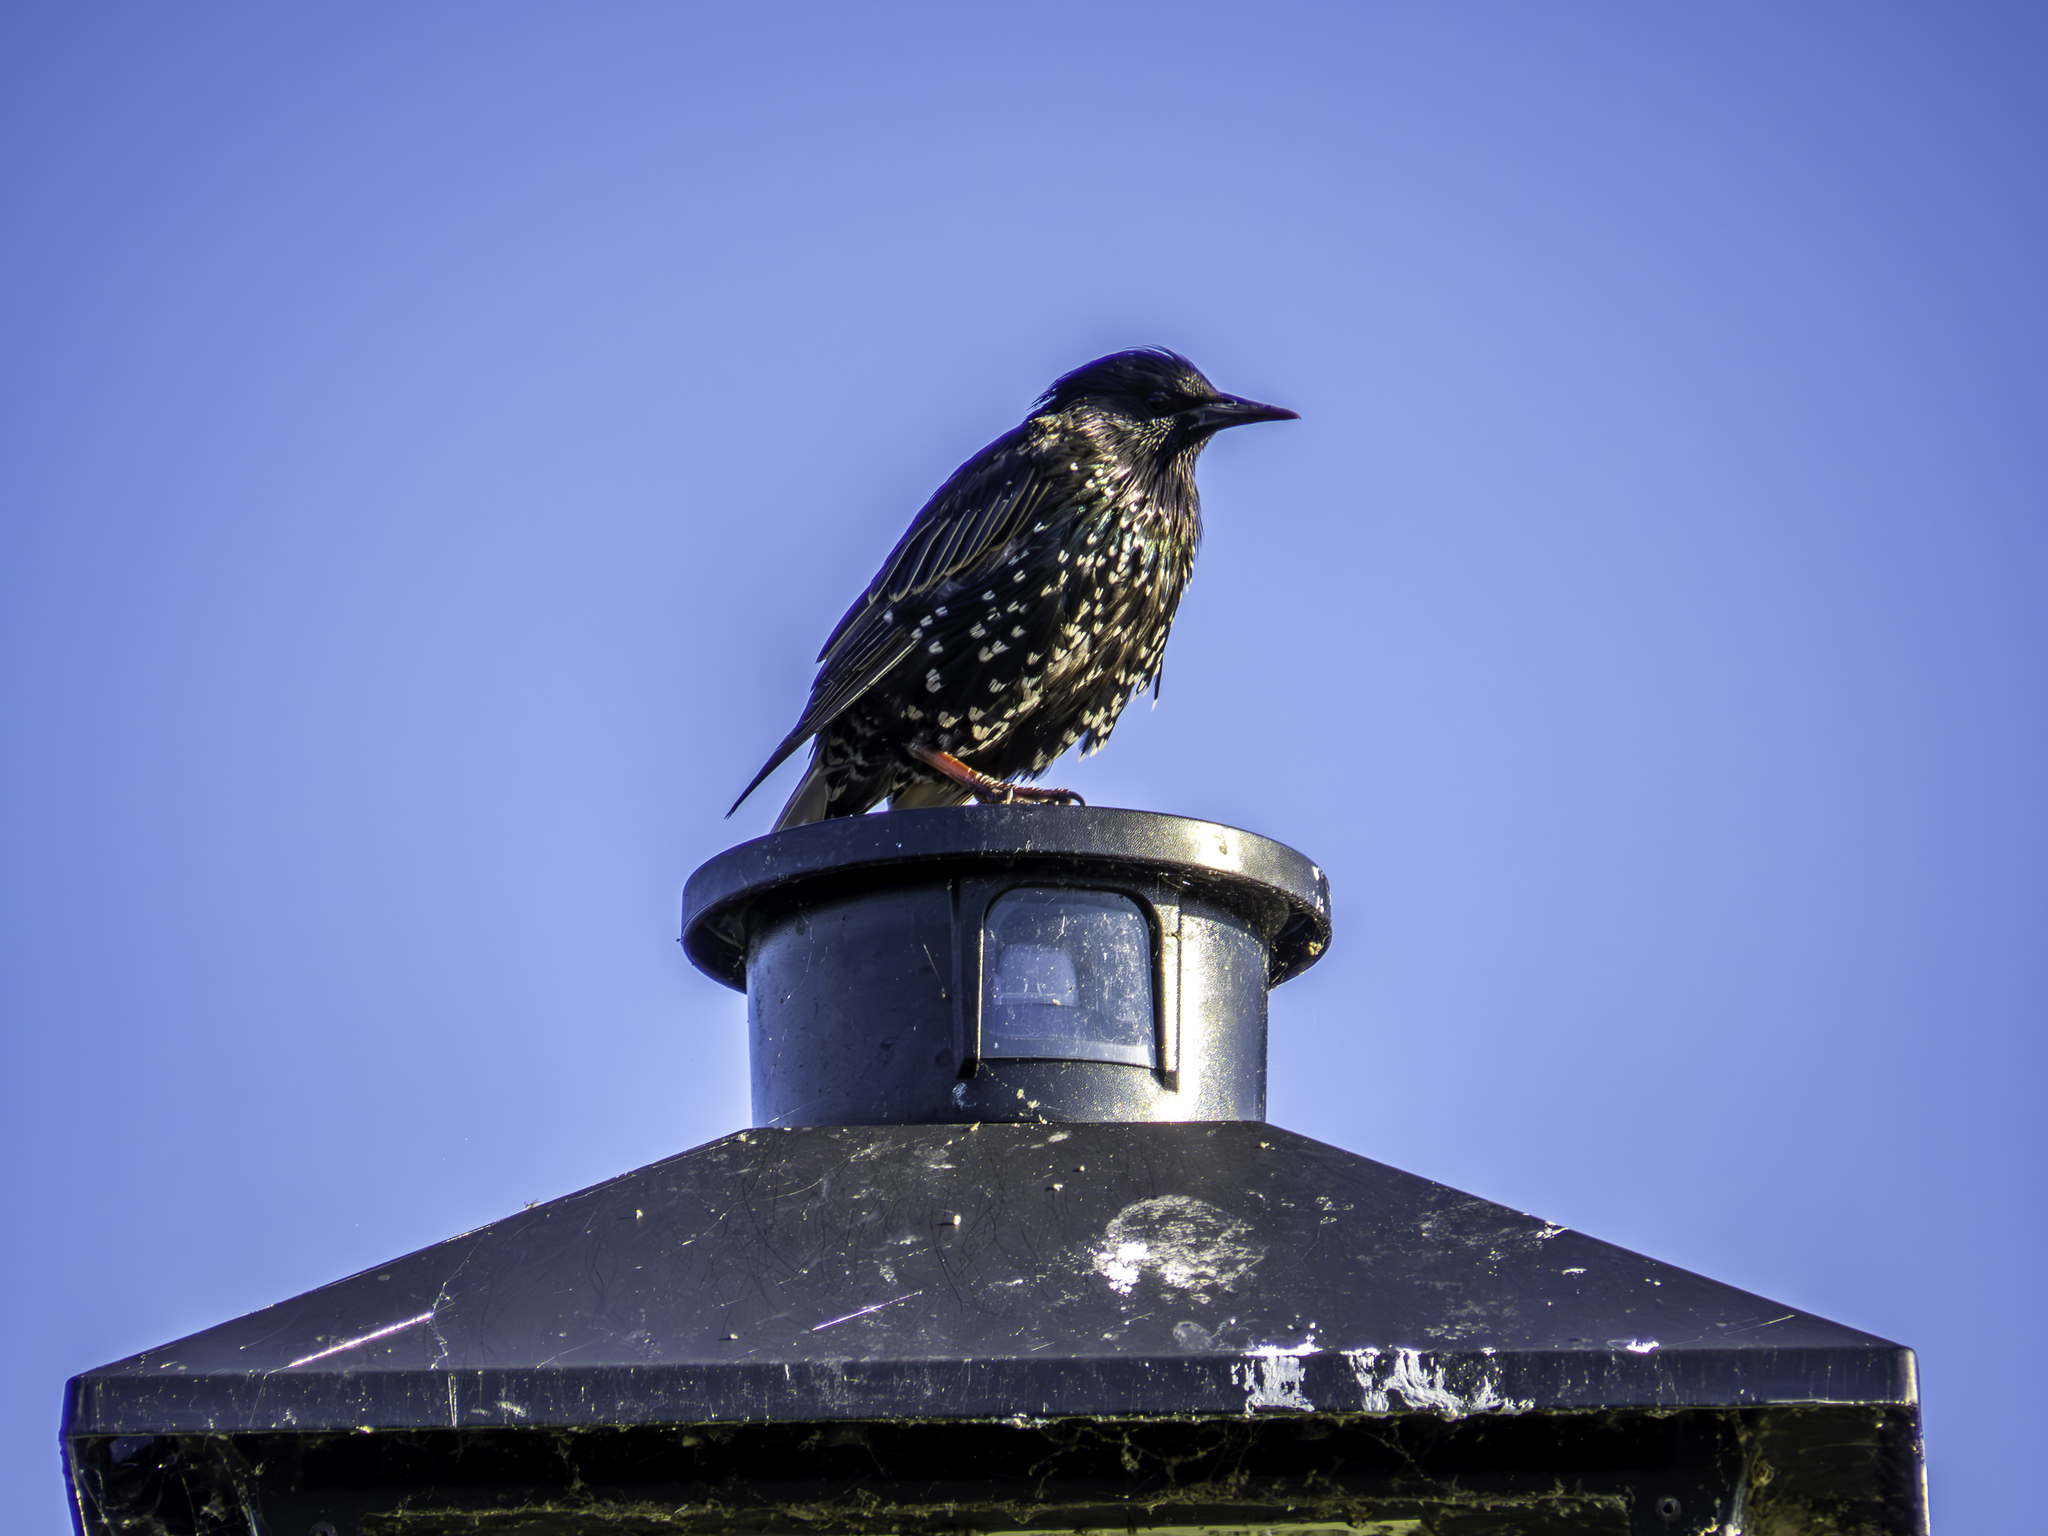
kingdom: Animalia
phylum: Chordata
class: Aves
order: Passeriformes
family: Sturnidae
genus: Sturnus
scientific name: Sturnus vulgaris
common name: Common starling
